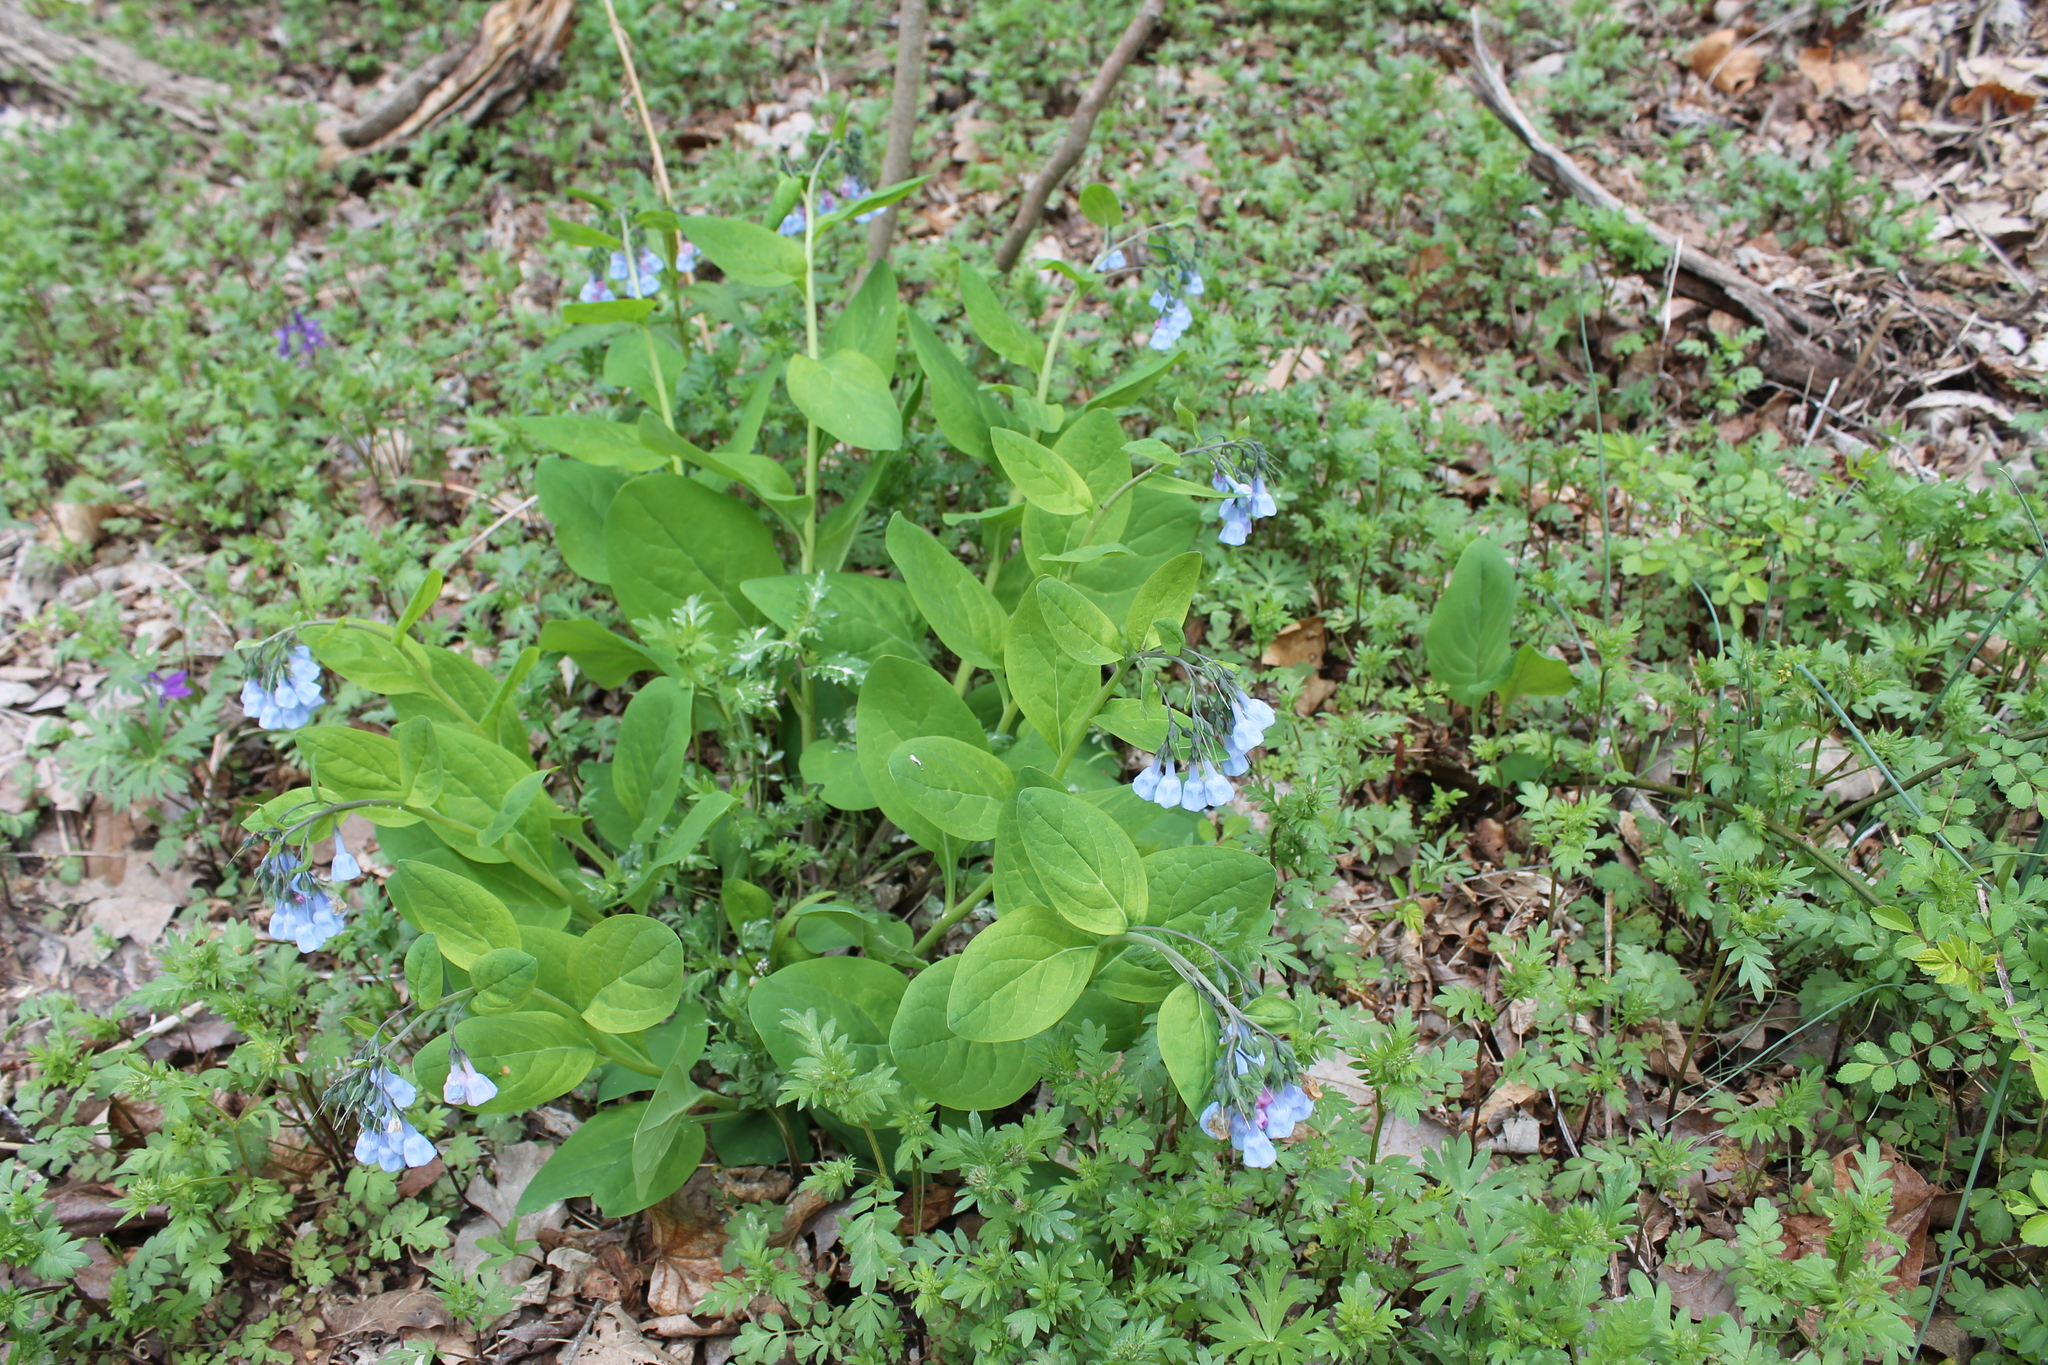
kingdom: Plantae
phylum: Tracheophyta
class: Magnoliopsida
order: Boraginales
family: Boraginaceae
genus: Mertensia
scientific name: Mertensia virginica
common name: Virginia bluebells
